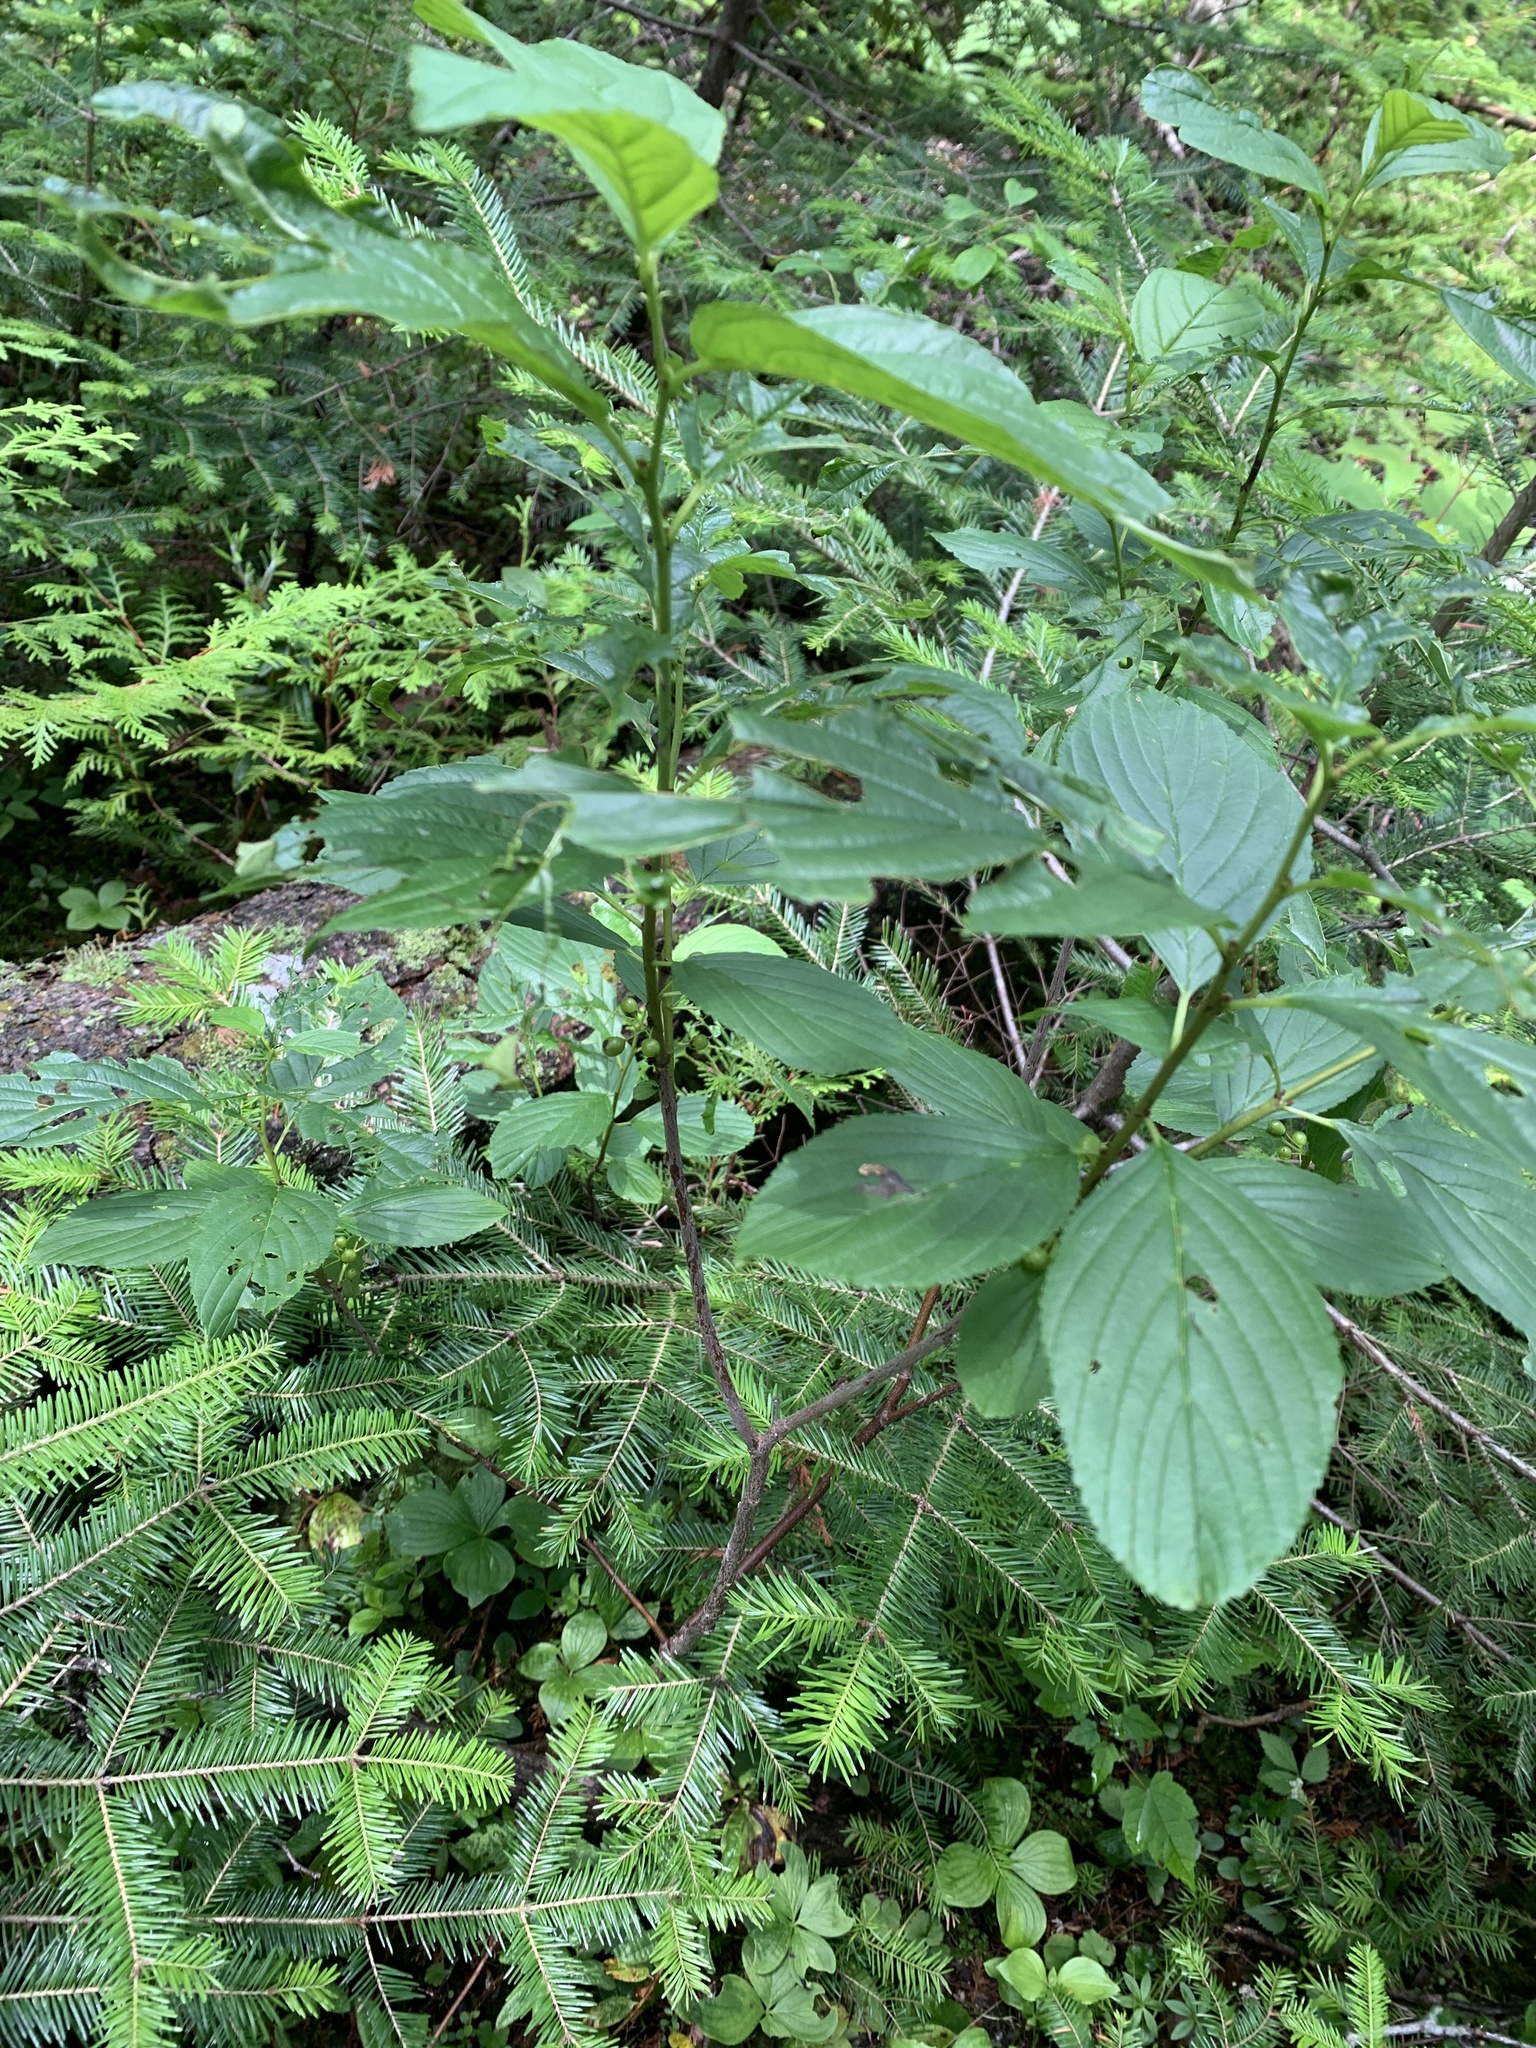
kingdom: Plantae
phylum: Tracheophyta
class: Magnoliopsida
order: Rosales
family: Rhamnaceae
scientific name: Rhamnaceae
